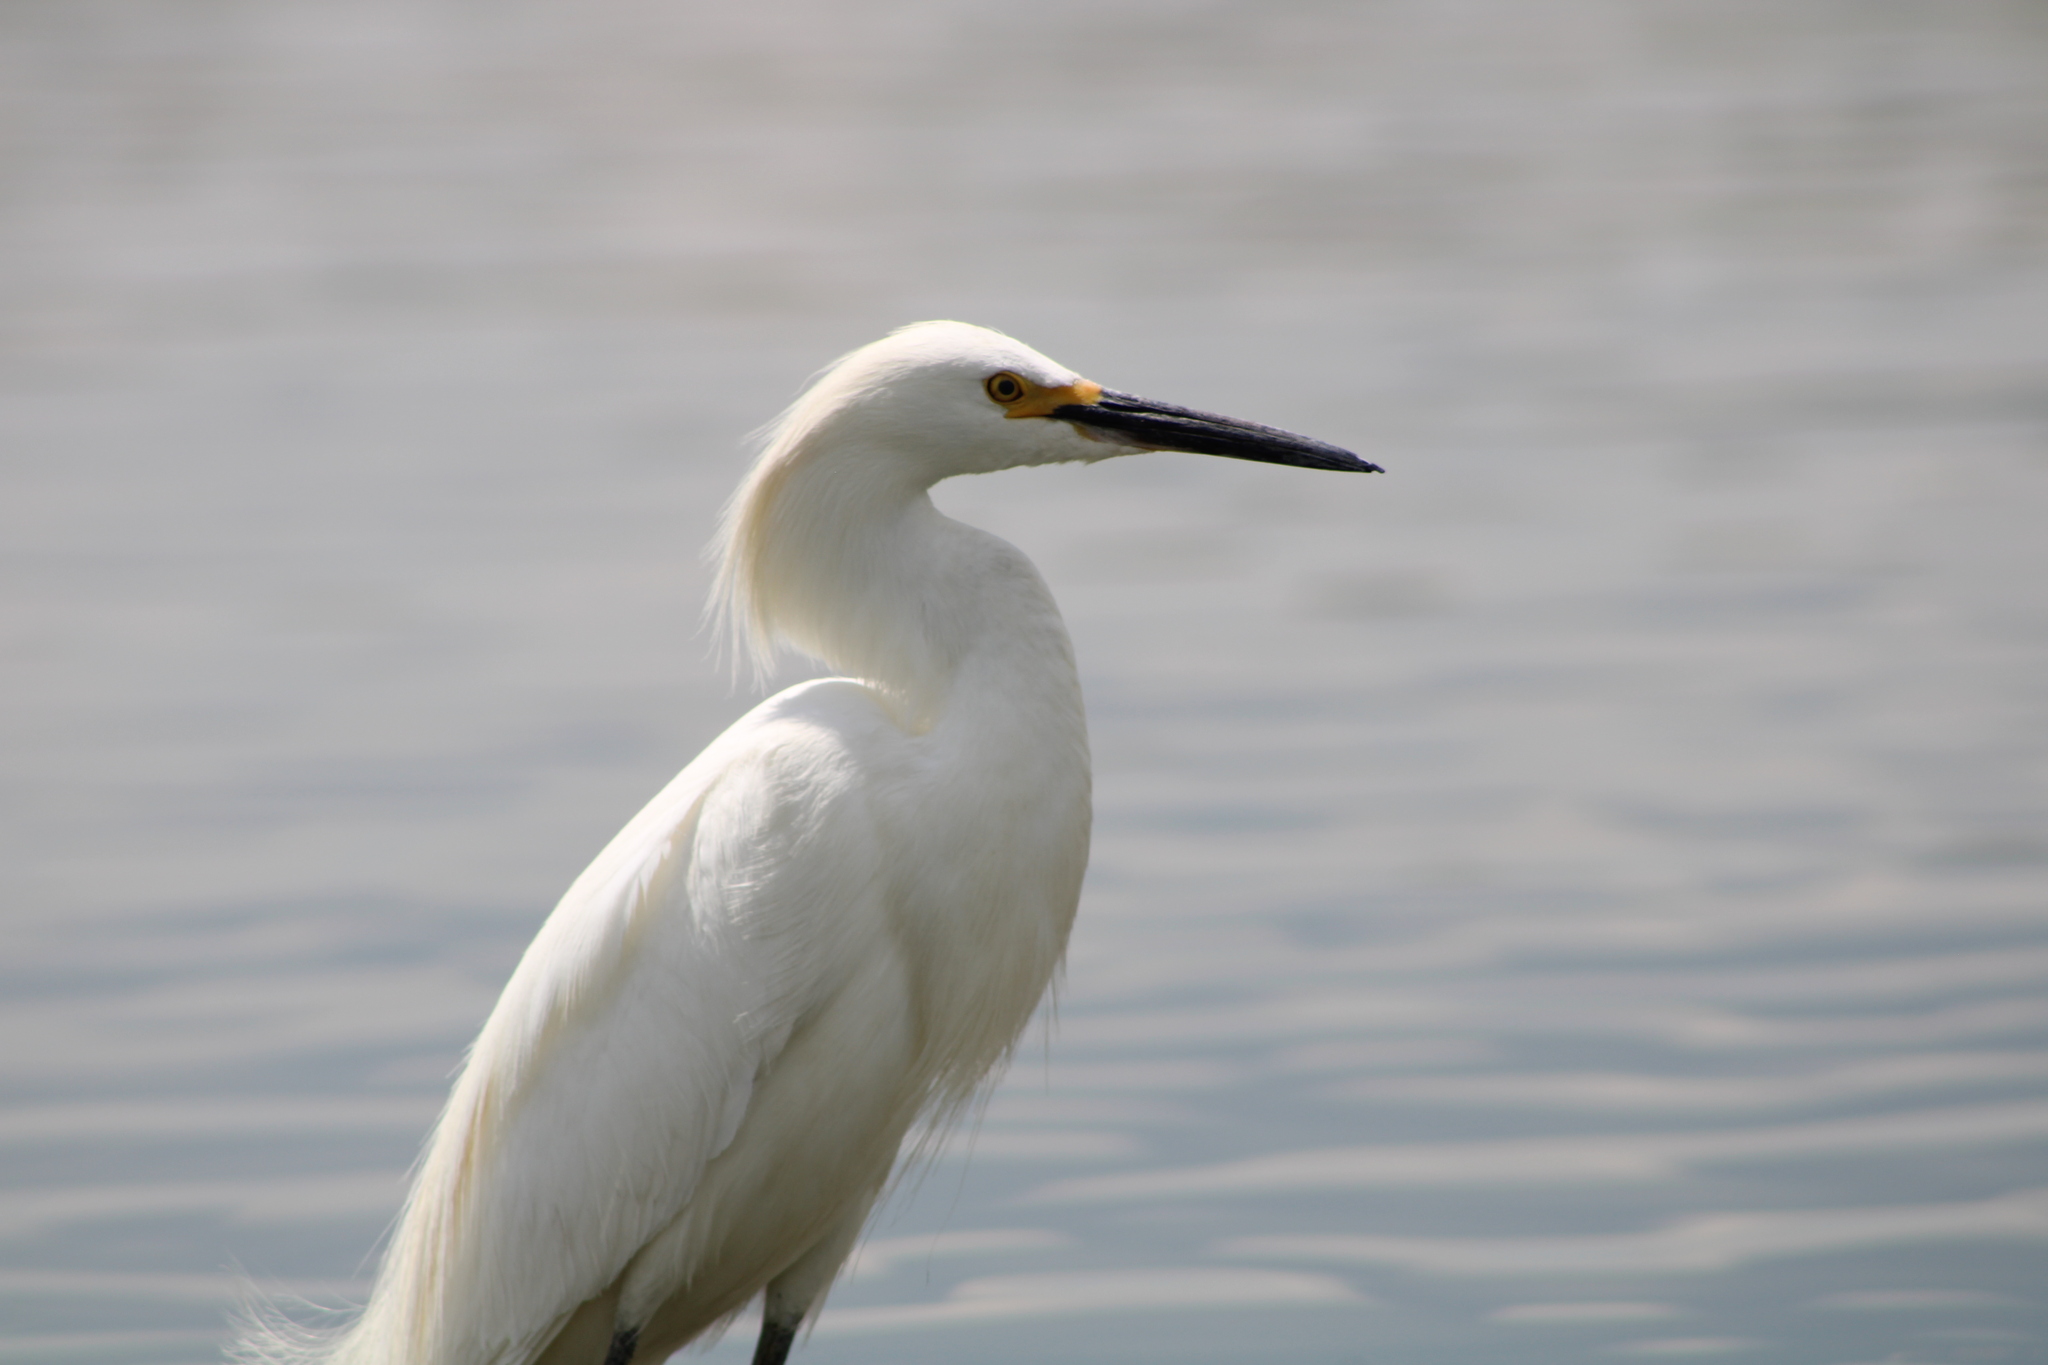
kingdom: Animalia
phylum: Chordata
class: Aves
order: Pelecaniformes
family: Ardeidae
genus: Egretta
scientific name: Egretta thula
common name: Snowy egret
